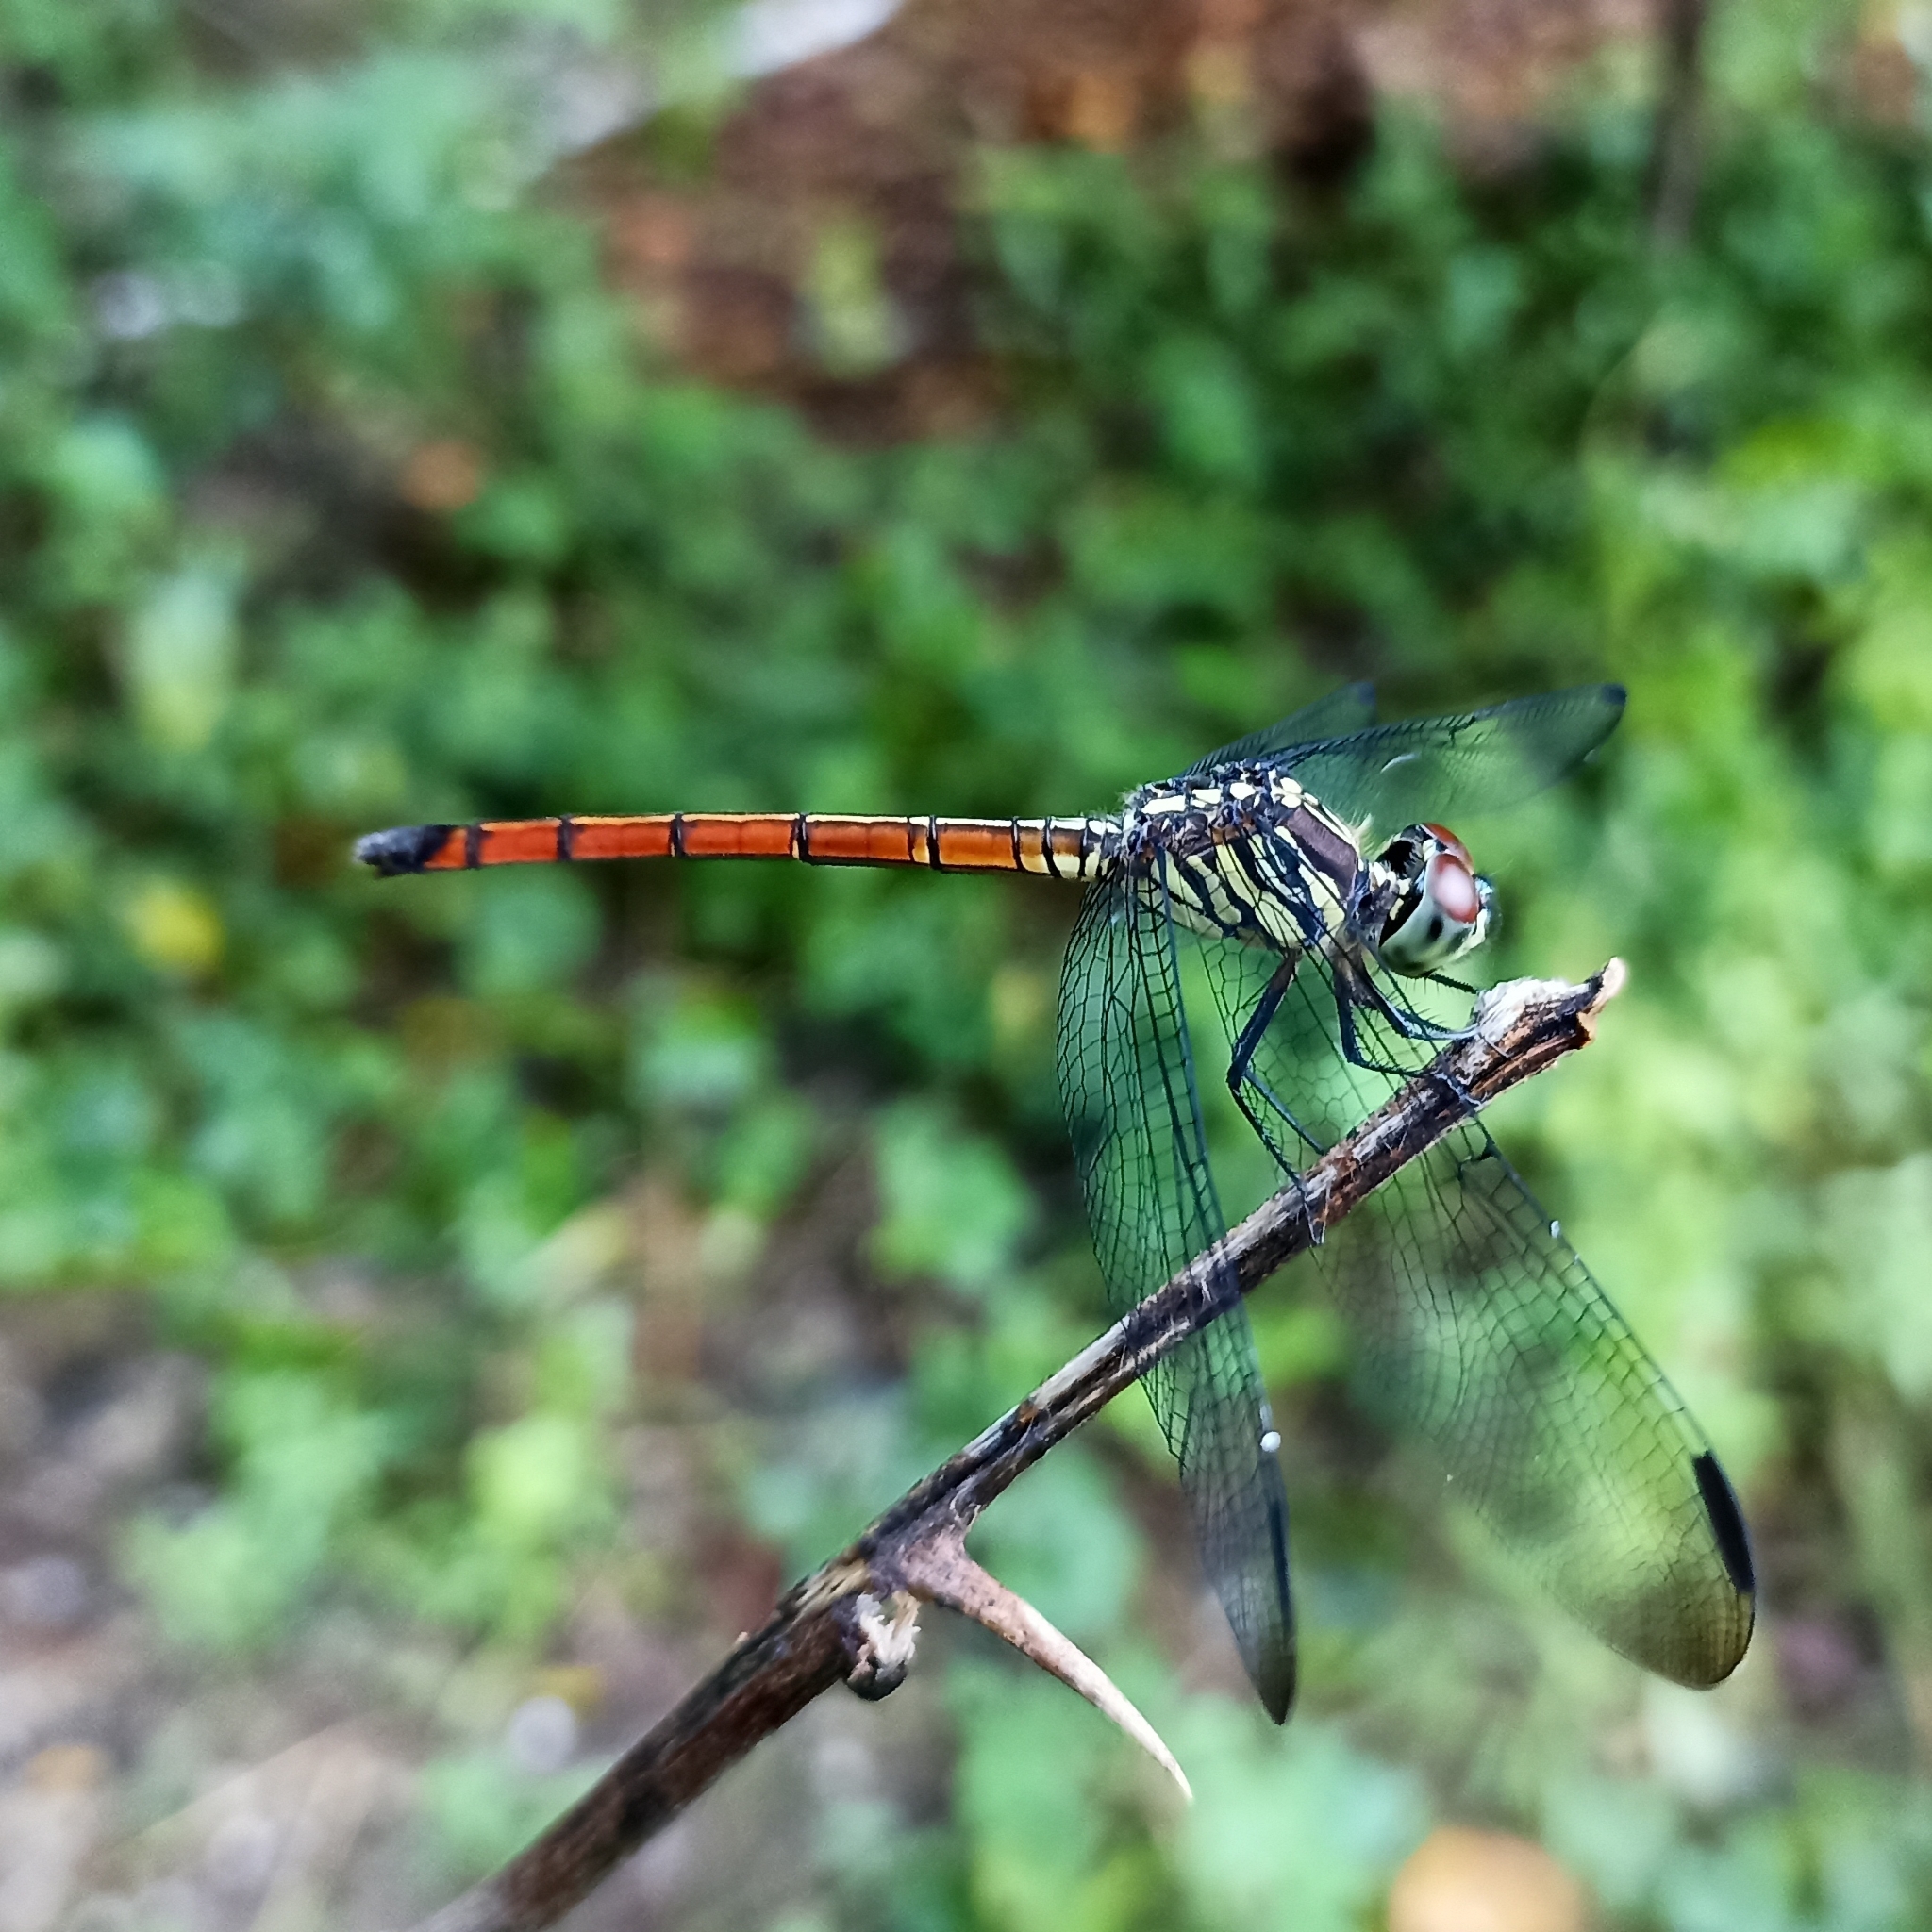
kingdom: Animalia
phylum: Arthropoda
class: Insecta
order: Odonata
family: Libellulidae
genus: Lathrecista
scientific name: Lathrecista asiatica
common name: Scarlet grenadier
